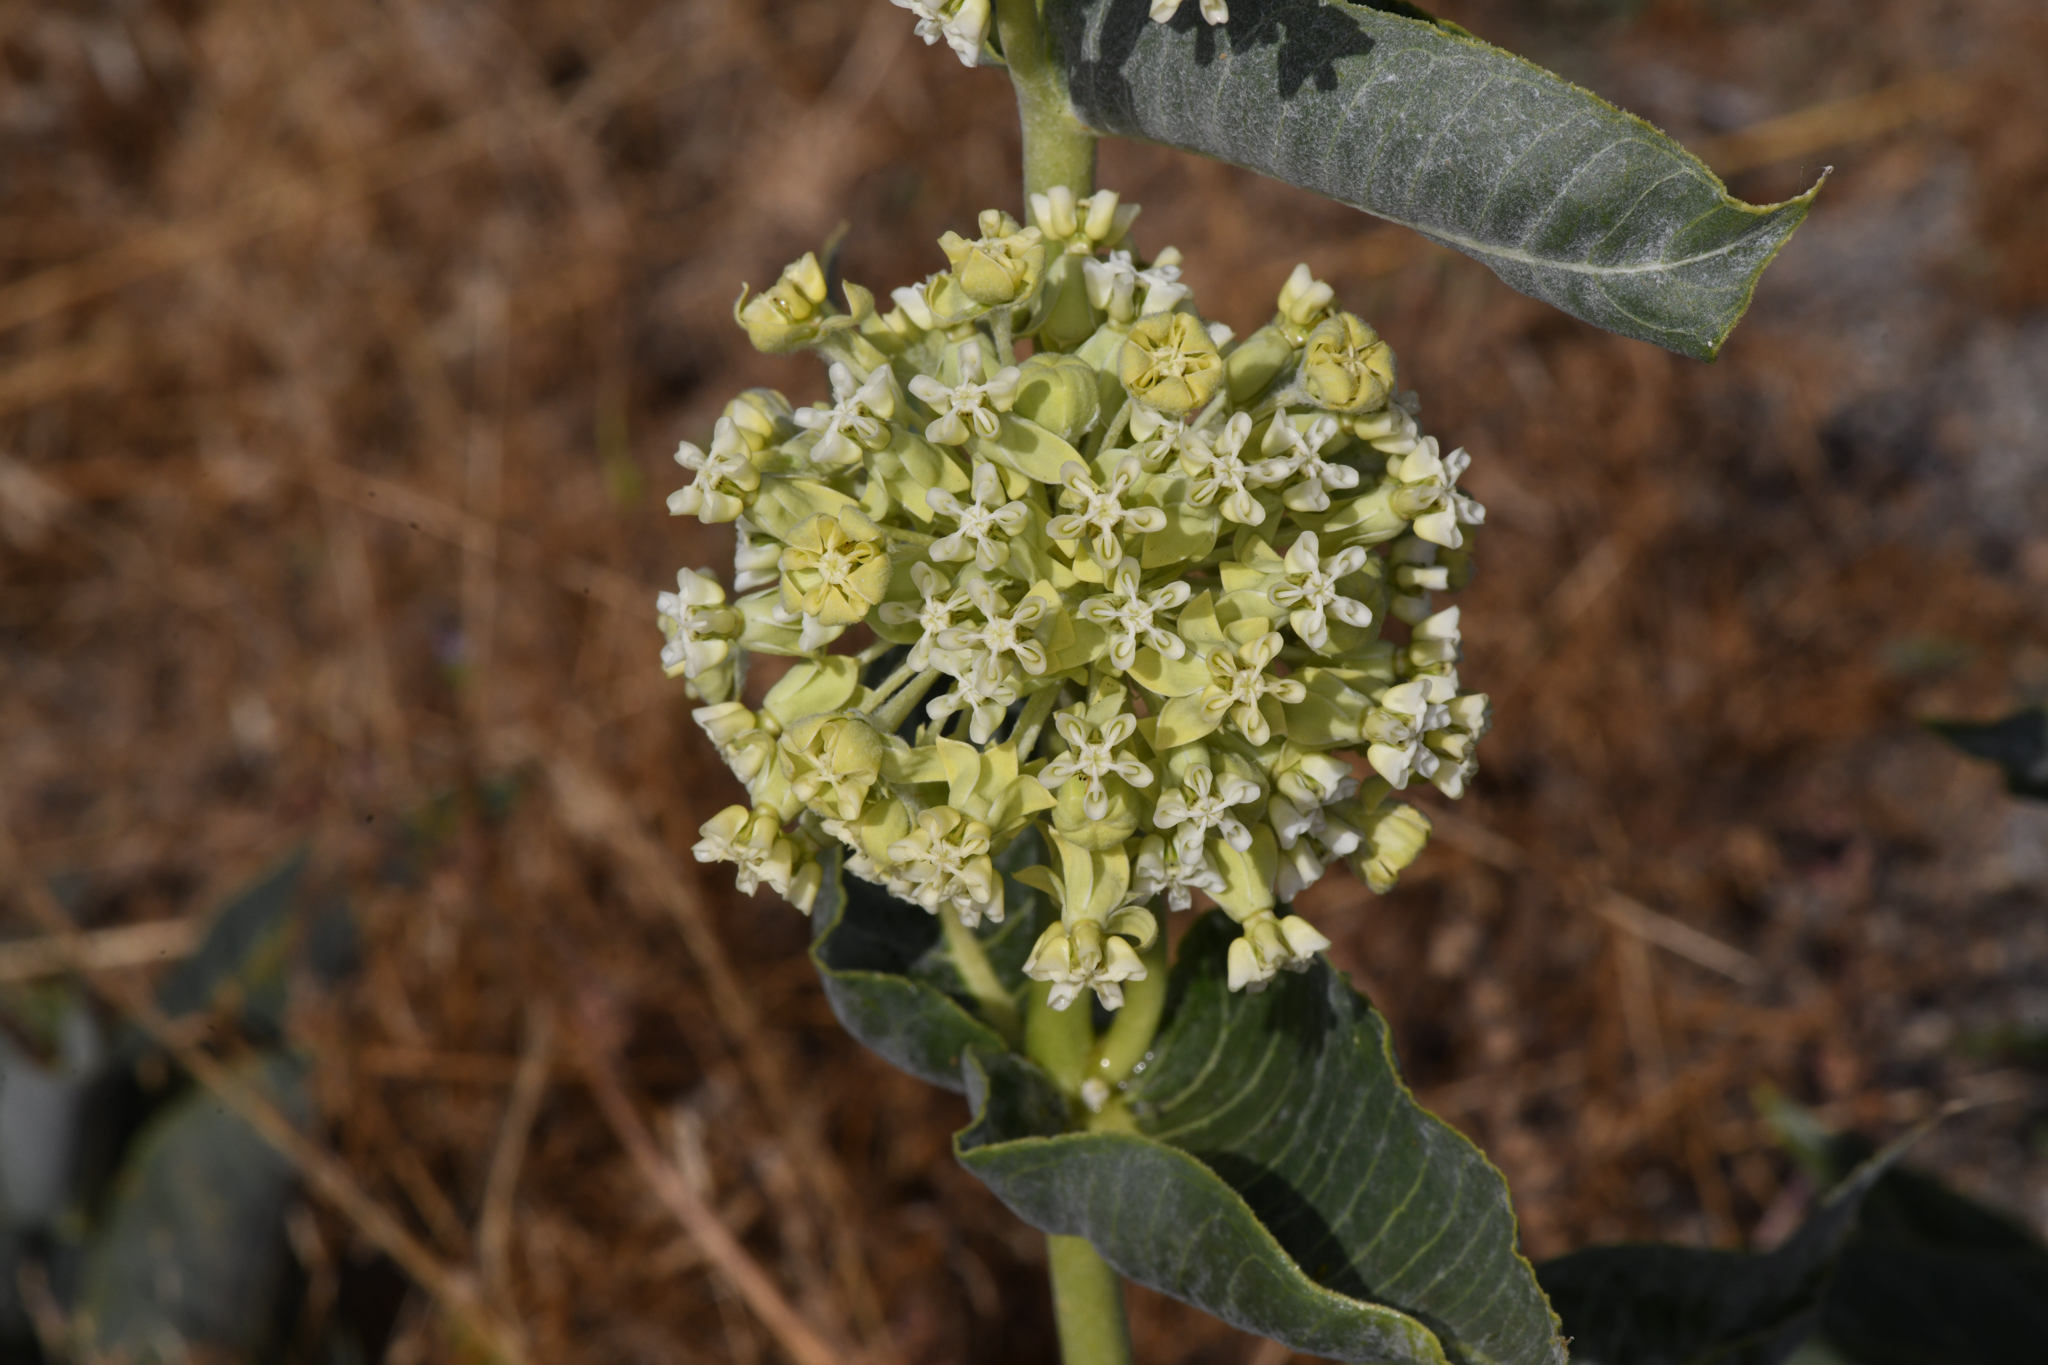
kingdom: Plantae
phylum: Tracheophyta
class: Magnoliopsida
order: Gentianales
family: Apocynaceae
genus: Asclepias
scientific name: Asclepias erosa
